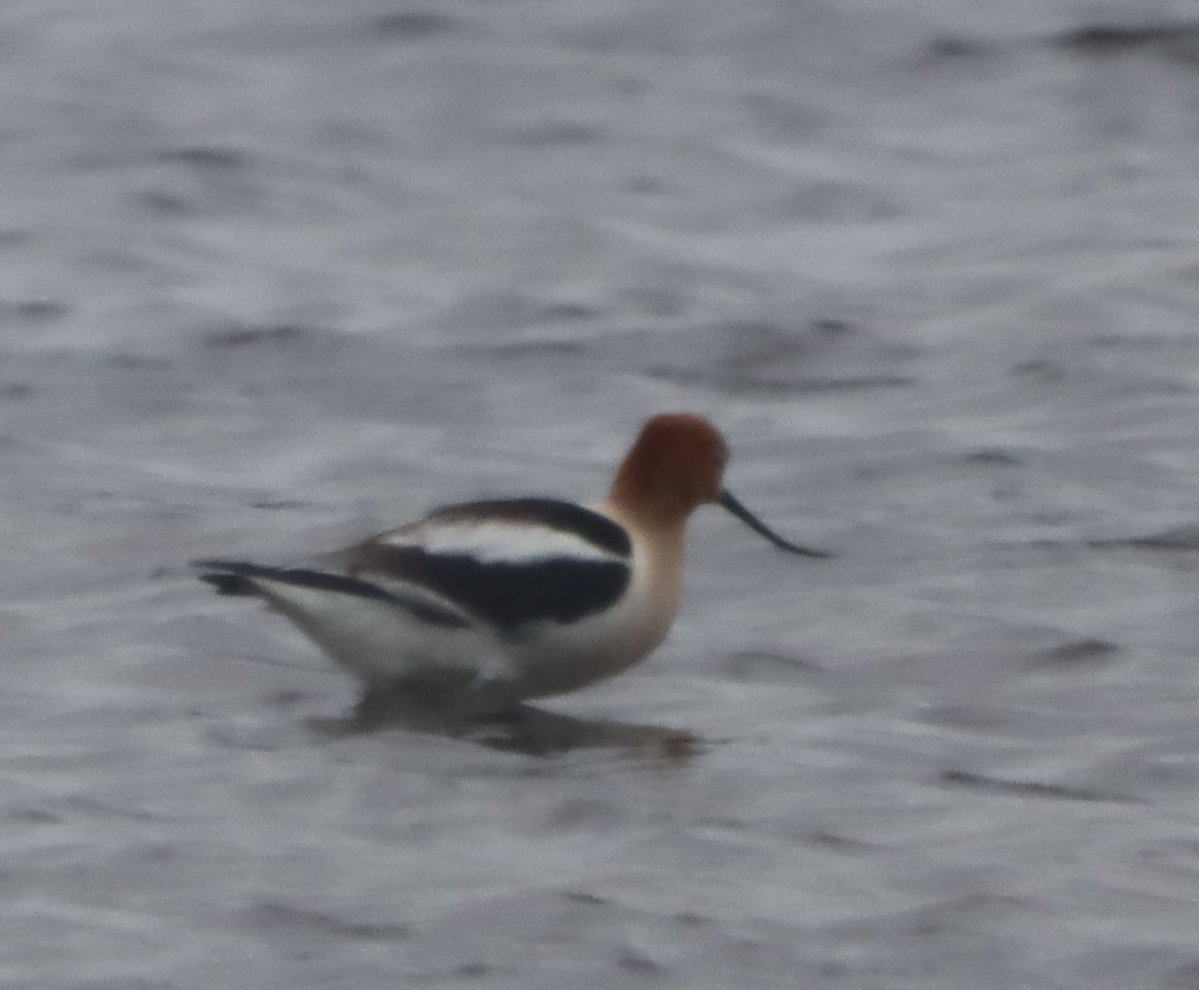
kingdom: Animalia
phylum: Chordata
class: Aves
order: Charadriiformes
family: Recurvirostridae
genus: Recurvirostra
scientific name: Recurvirostra americana
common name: American avocet
